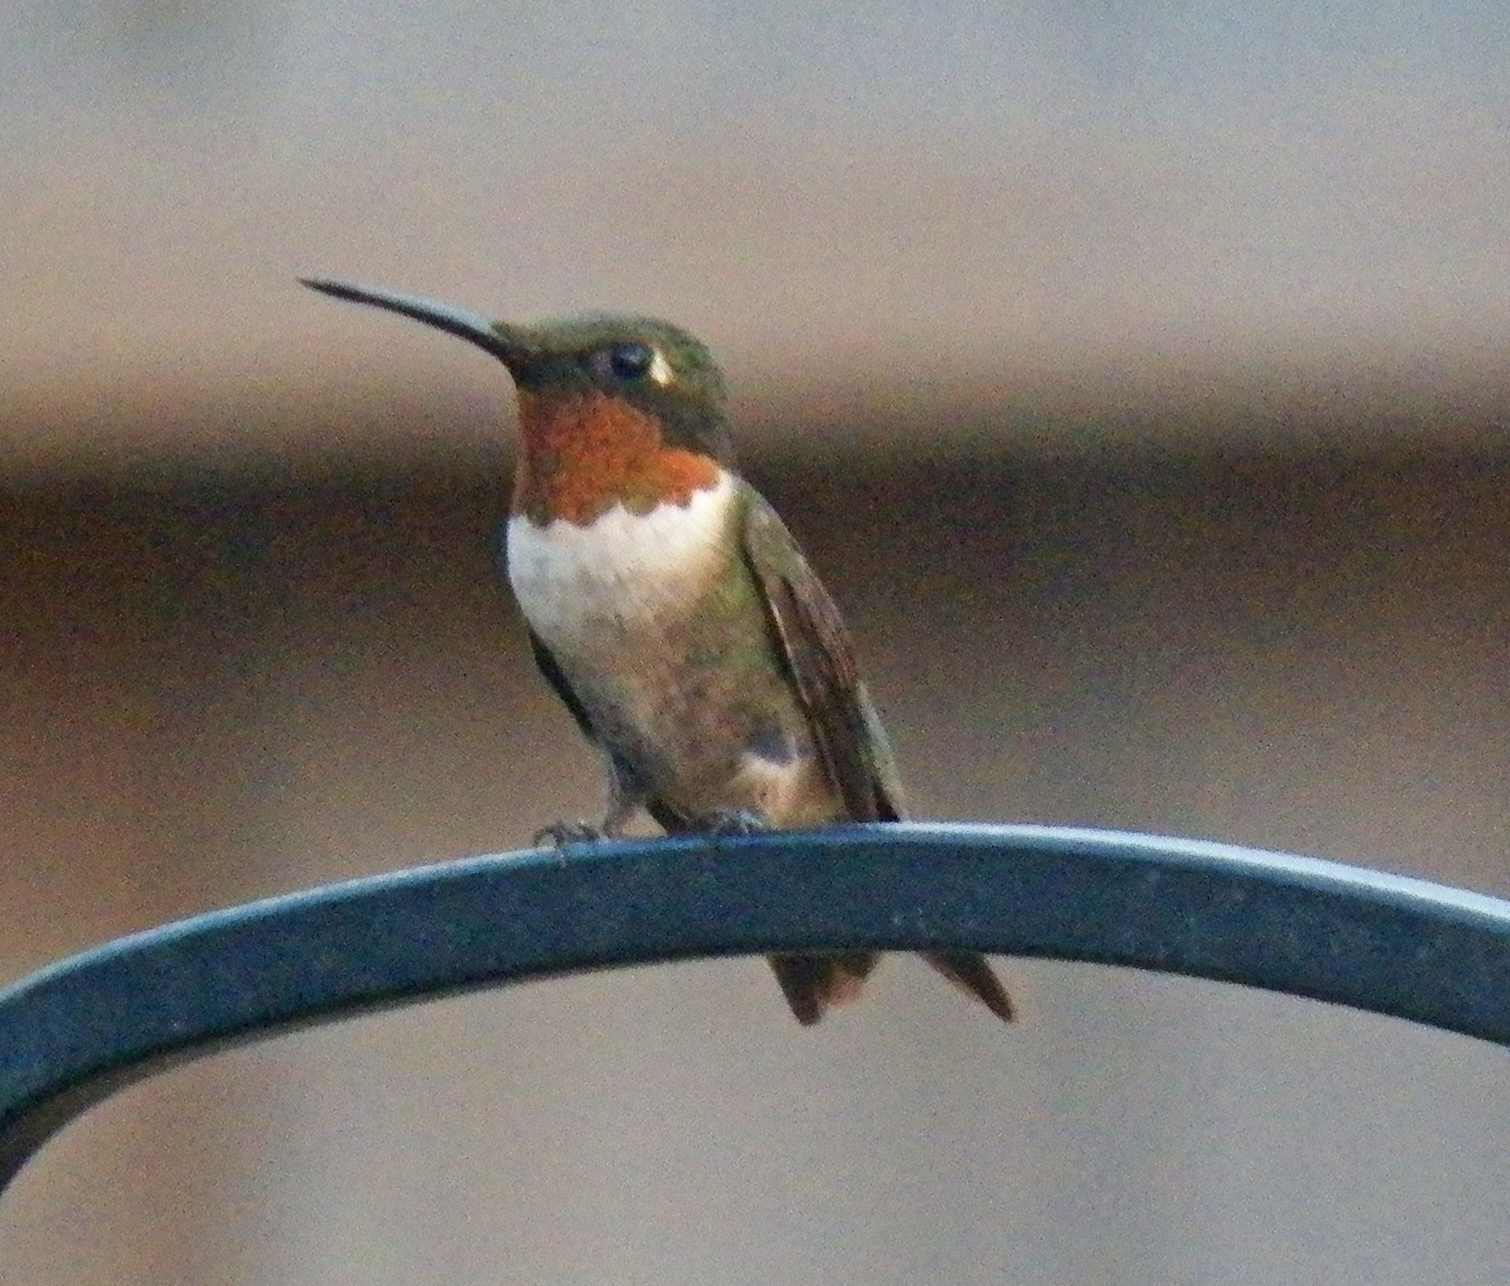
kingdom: Animalia
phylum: Chordata
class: Aves
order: Apodiformes
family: Trochilidae
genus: Archilochus
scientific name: Archilochus colubris
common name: Ruby-throated hummingbird
